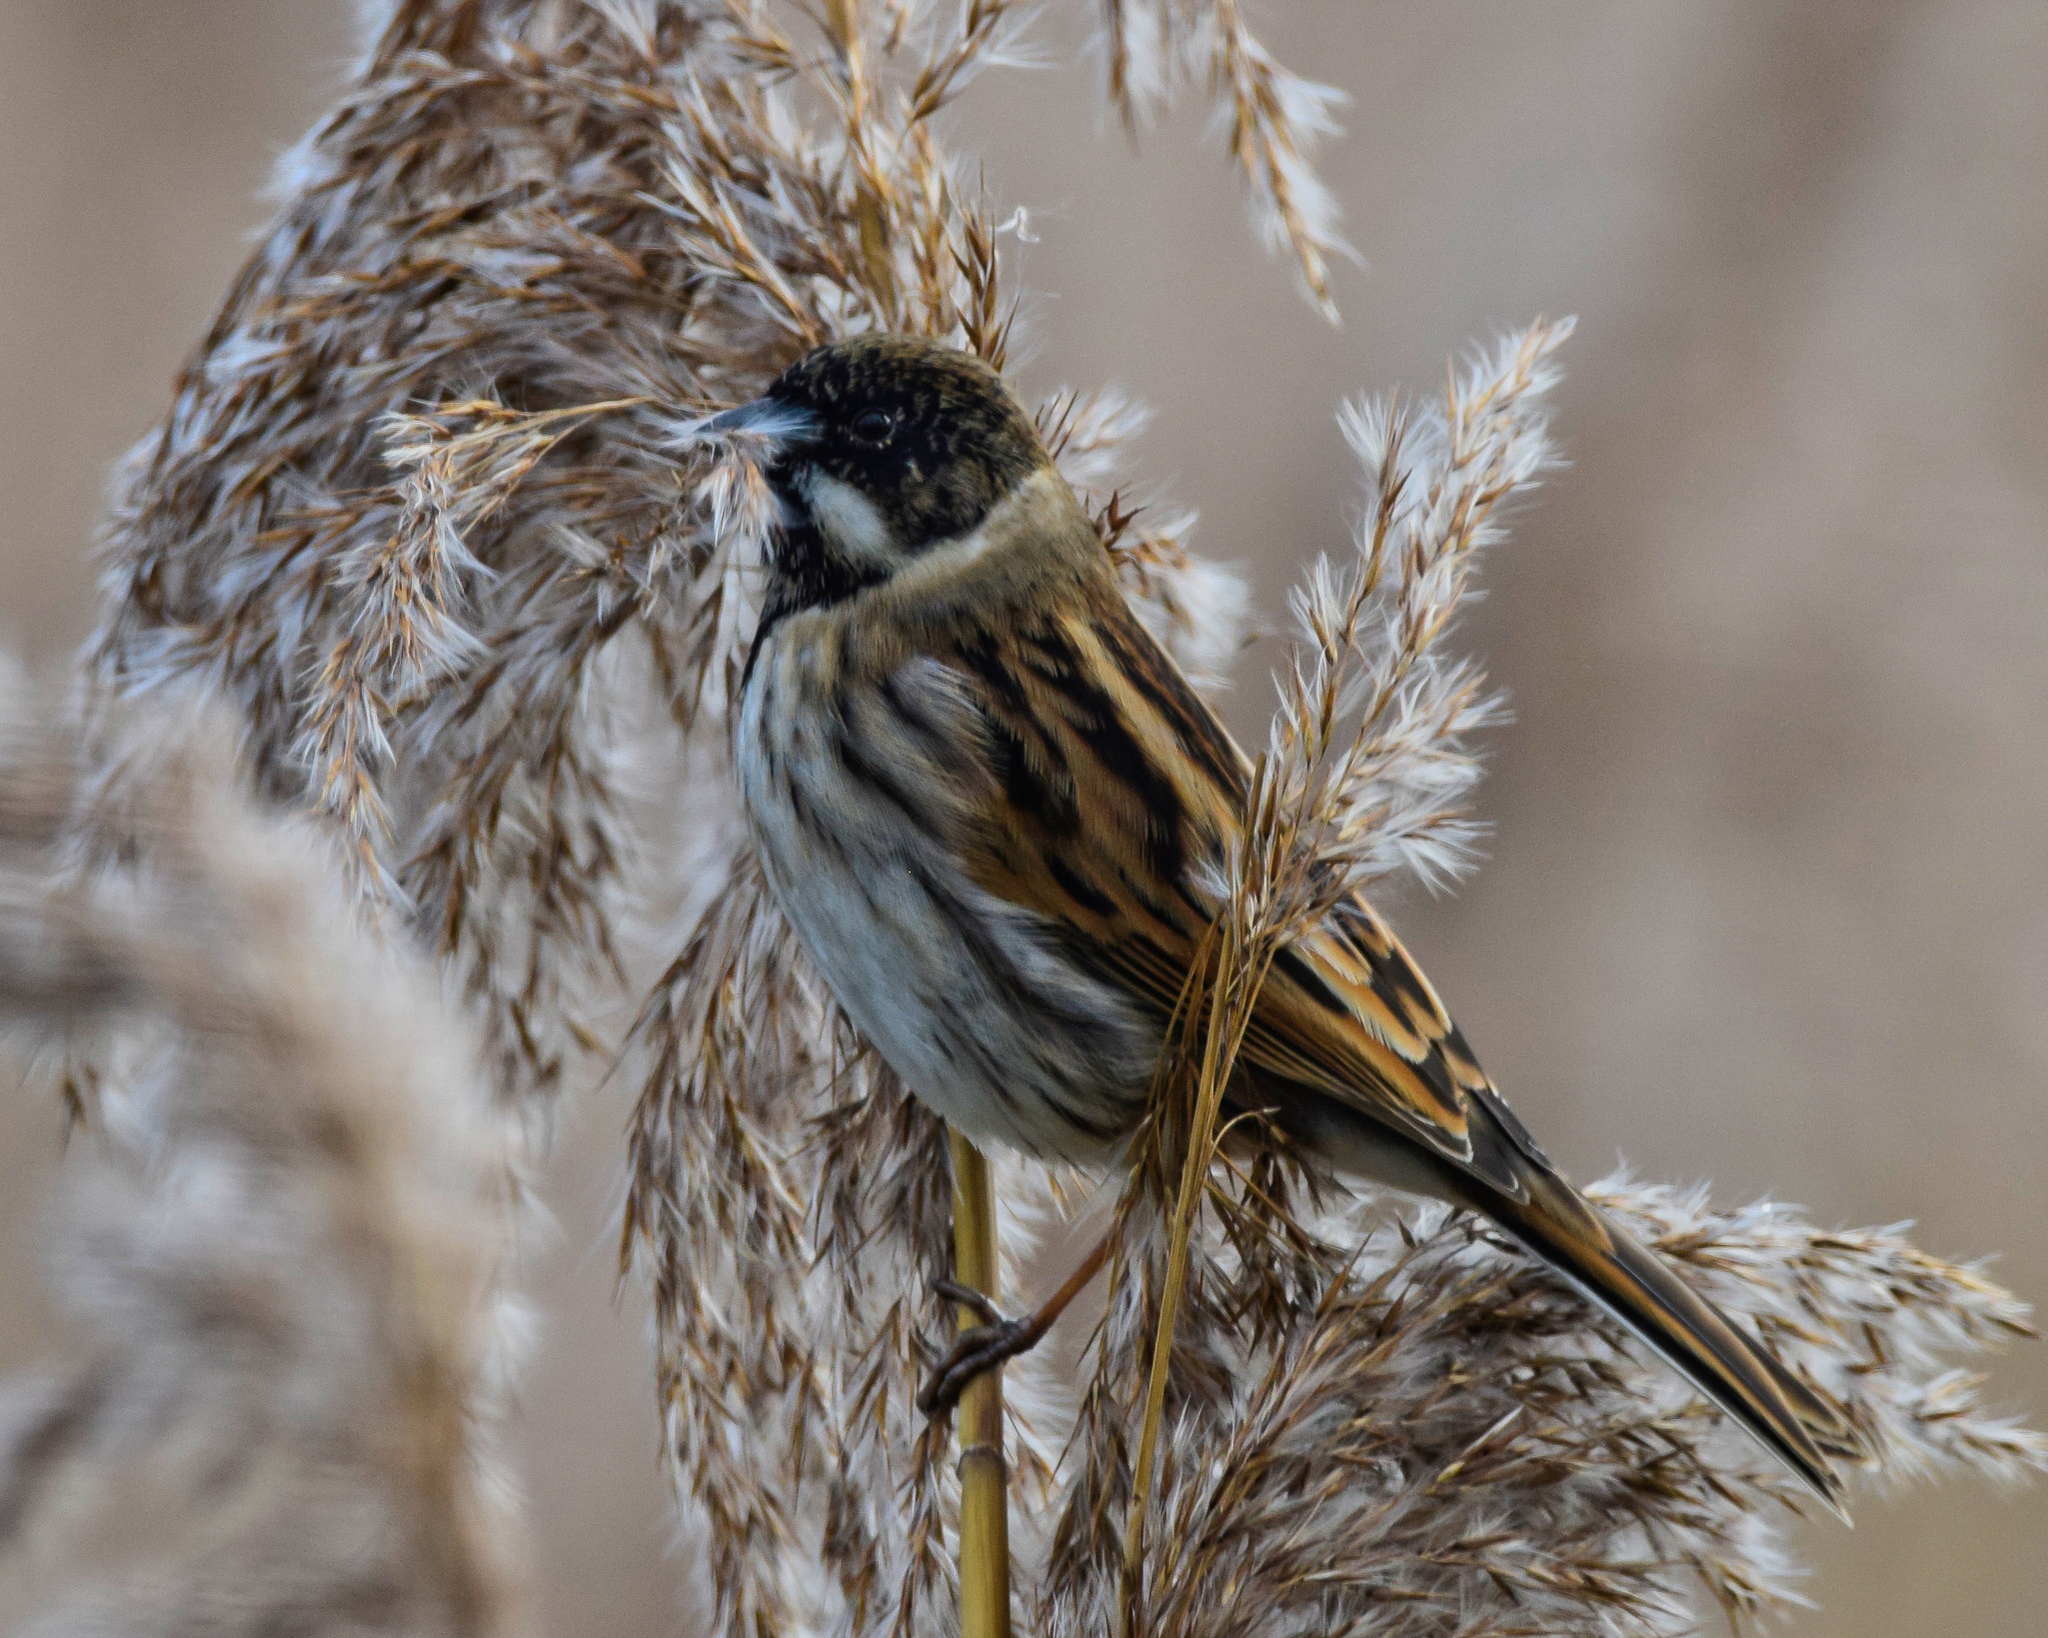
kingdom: Animalia
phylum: Chordata
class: Aves
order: Passeriformes
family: Emberizidae
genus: Emberiza
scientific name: Emberiza schoeniclus
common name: Reed bunting
